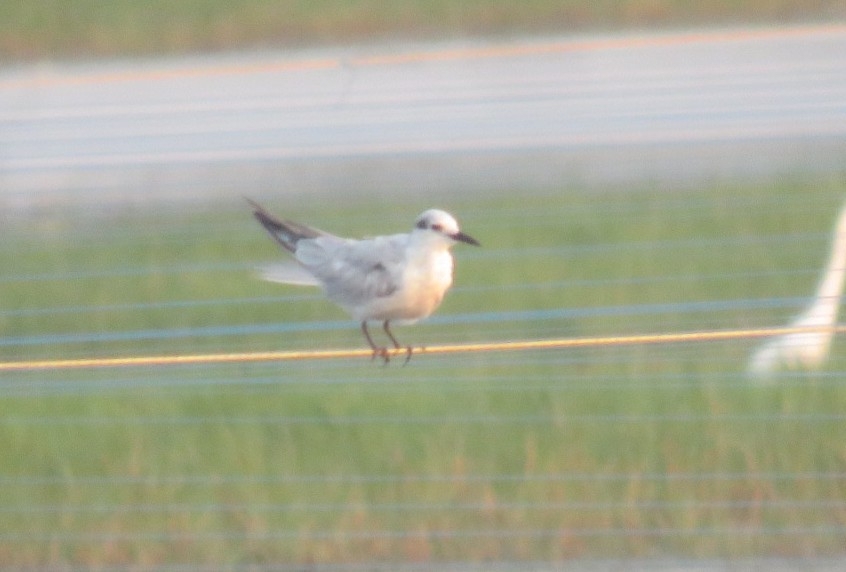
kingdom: Animalia
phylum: Chordata
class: Aves
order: Charadriiformes
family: Laridae
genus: Chlidonias
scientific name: Chlidonias hybrida
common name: Whiskered tern
